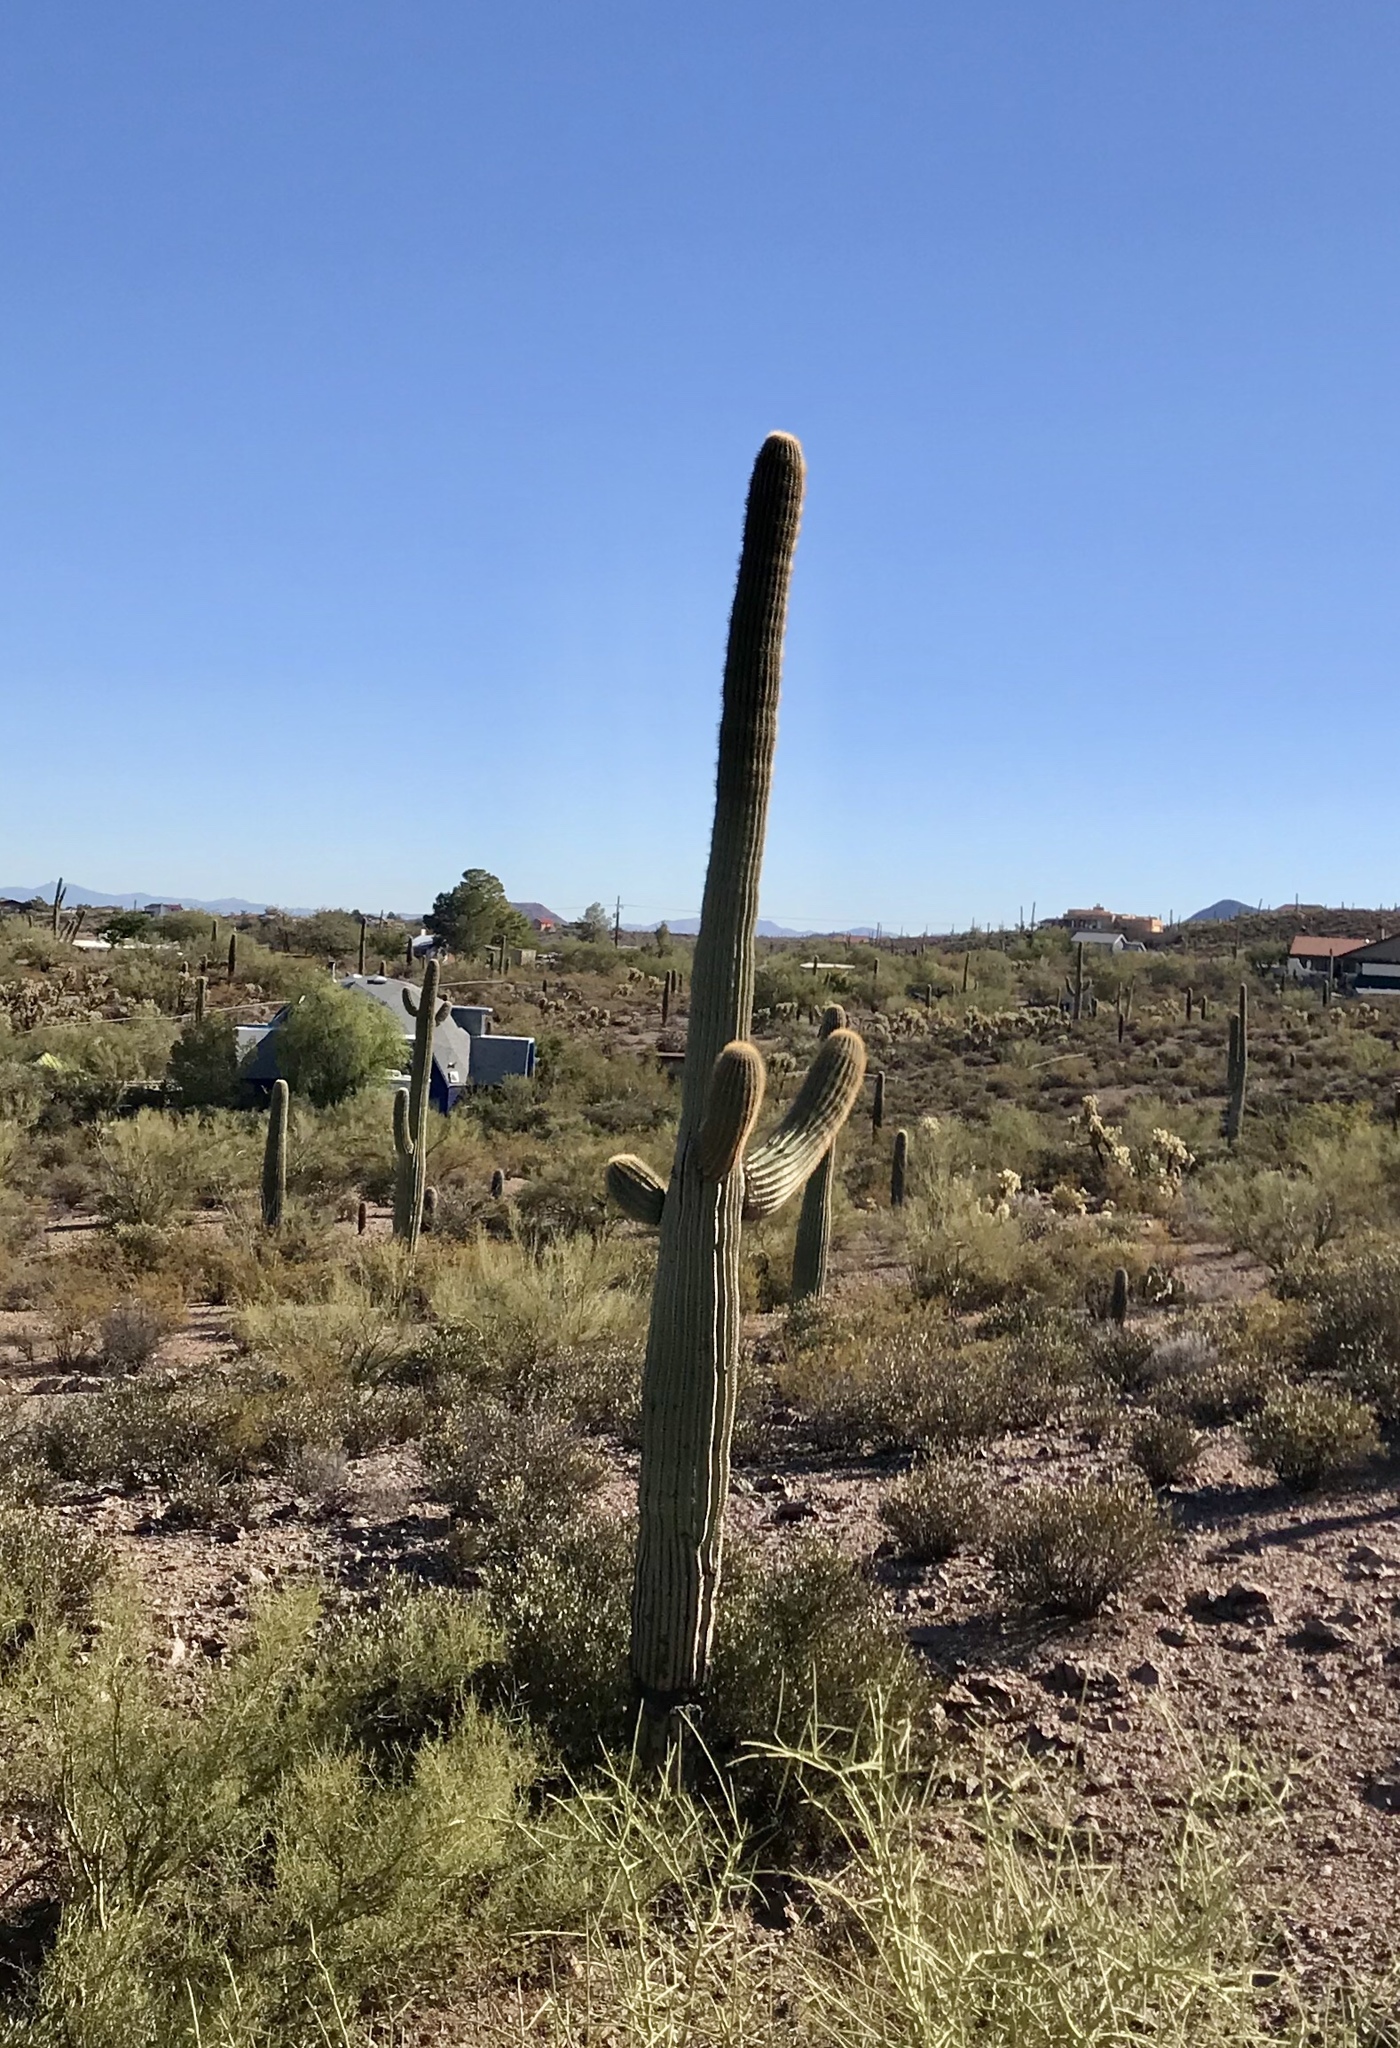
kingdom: Plantae
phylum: Tracheophyta
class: Magnoliopsida
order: Caryophyllales
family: Cactaceae
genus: Carnegiea
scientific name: Carnegiea gigantea
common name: Saguaro
